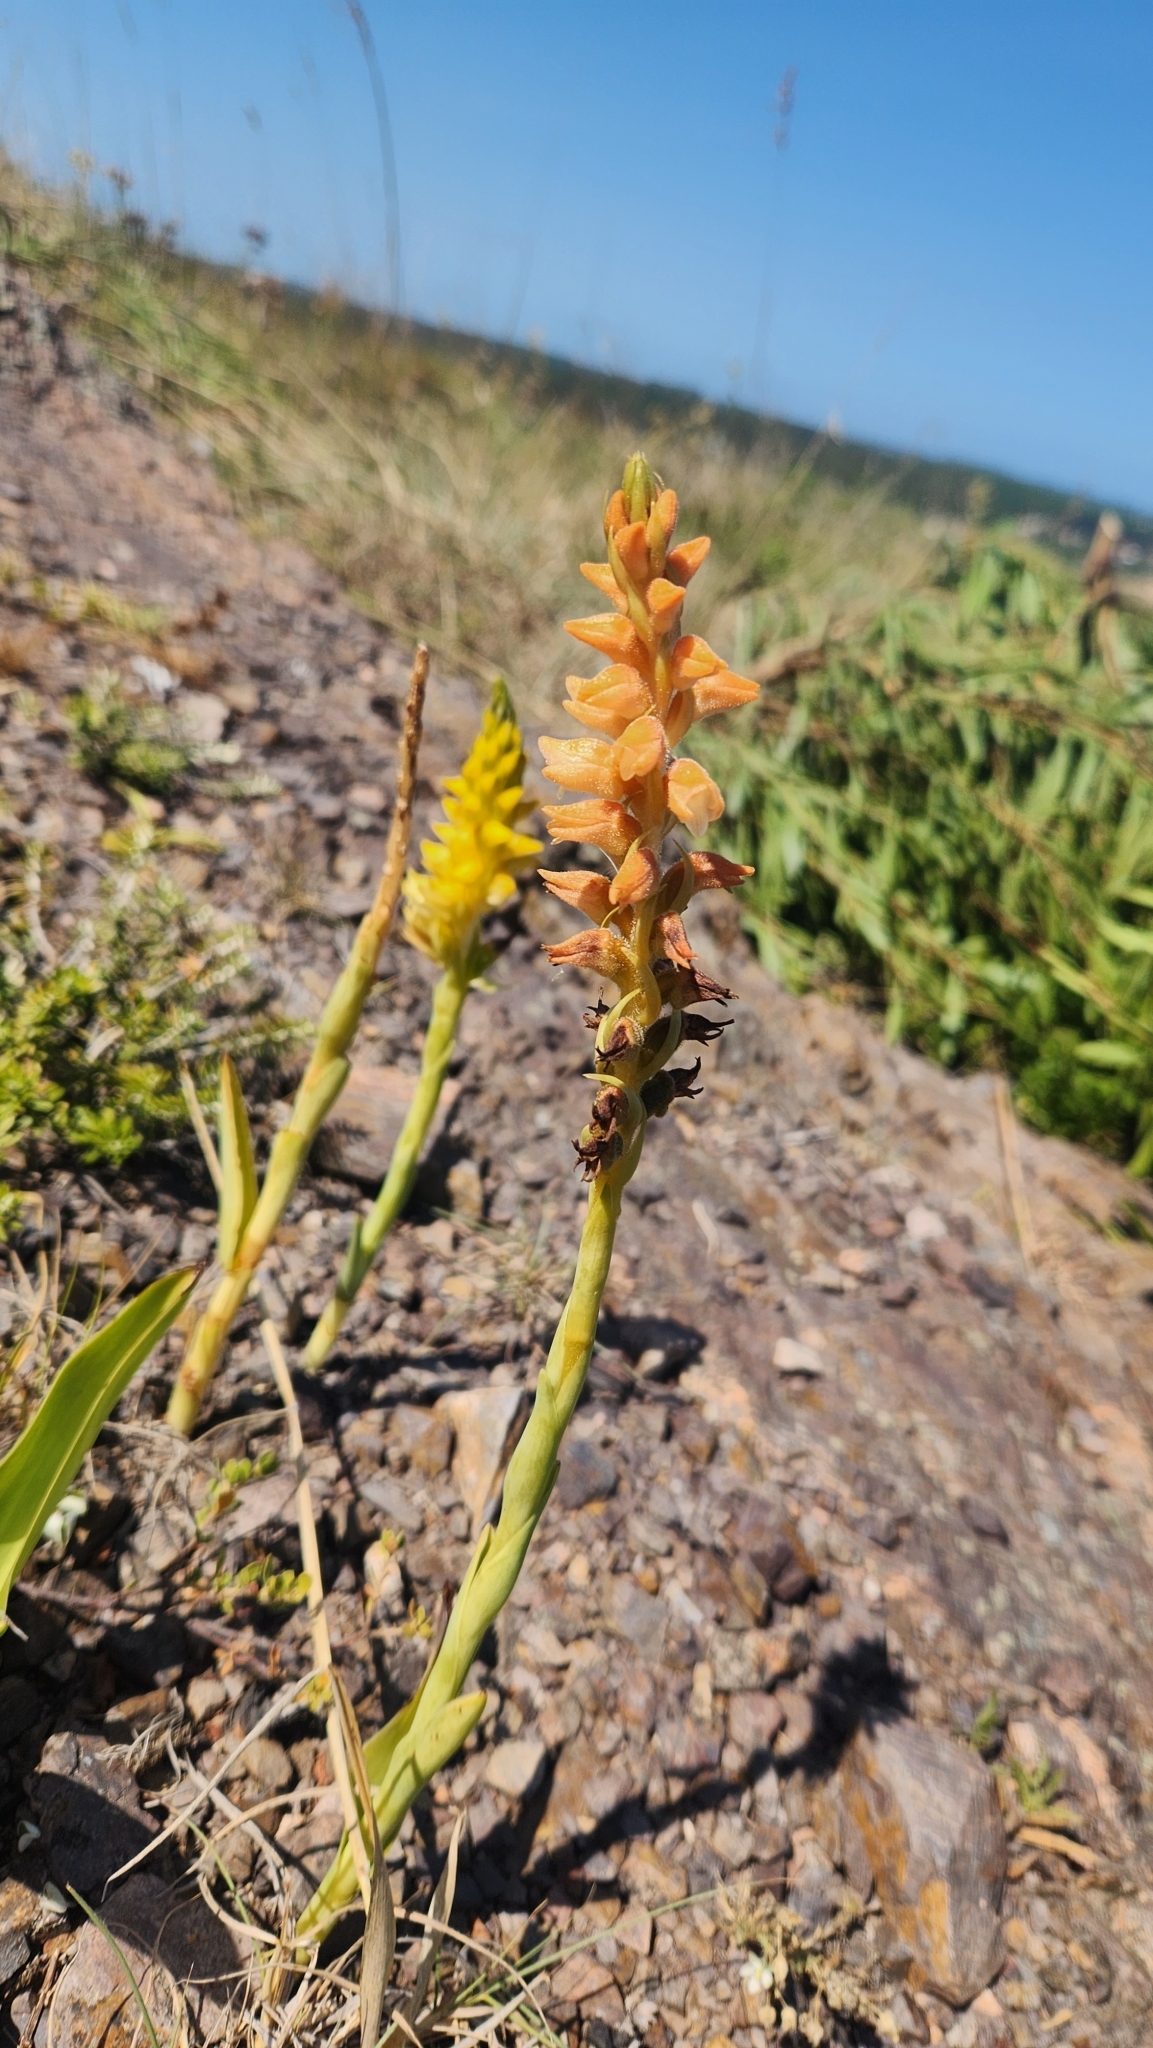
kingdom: Plantae
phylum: Tracheophyta
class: Liliopsida
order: Asparagales
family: Orchidaceae
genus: Skeptrostachys
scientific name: Skeptrostachys gigantea
